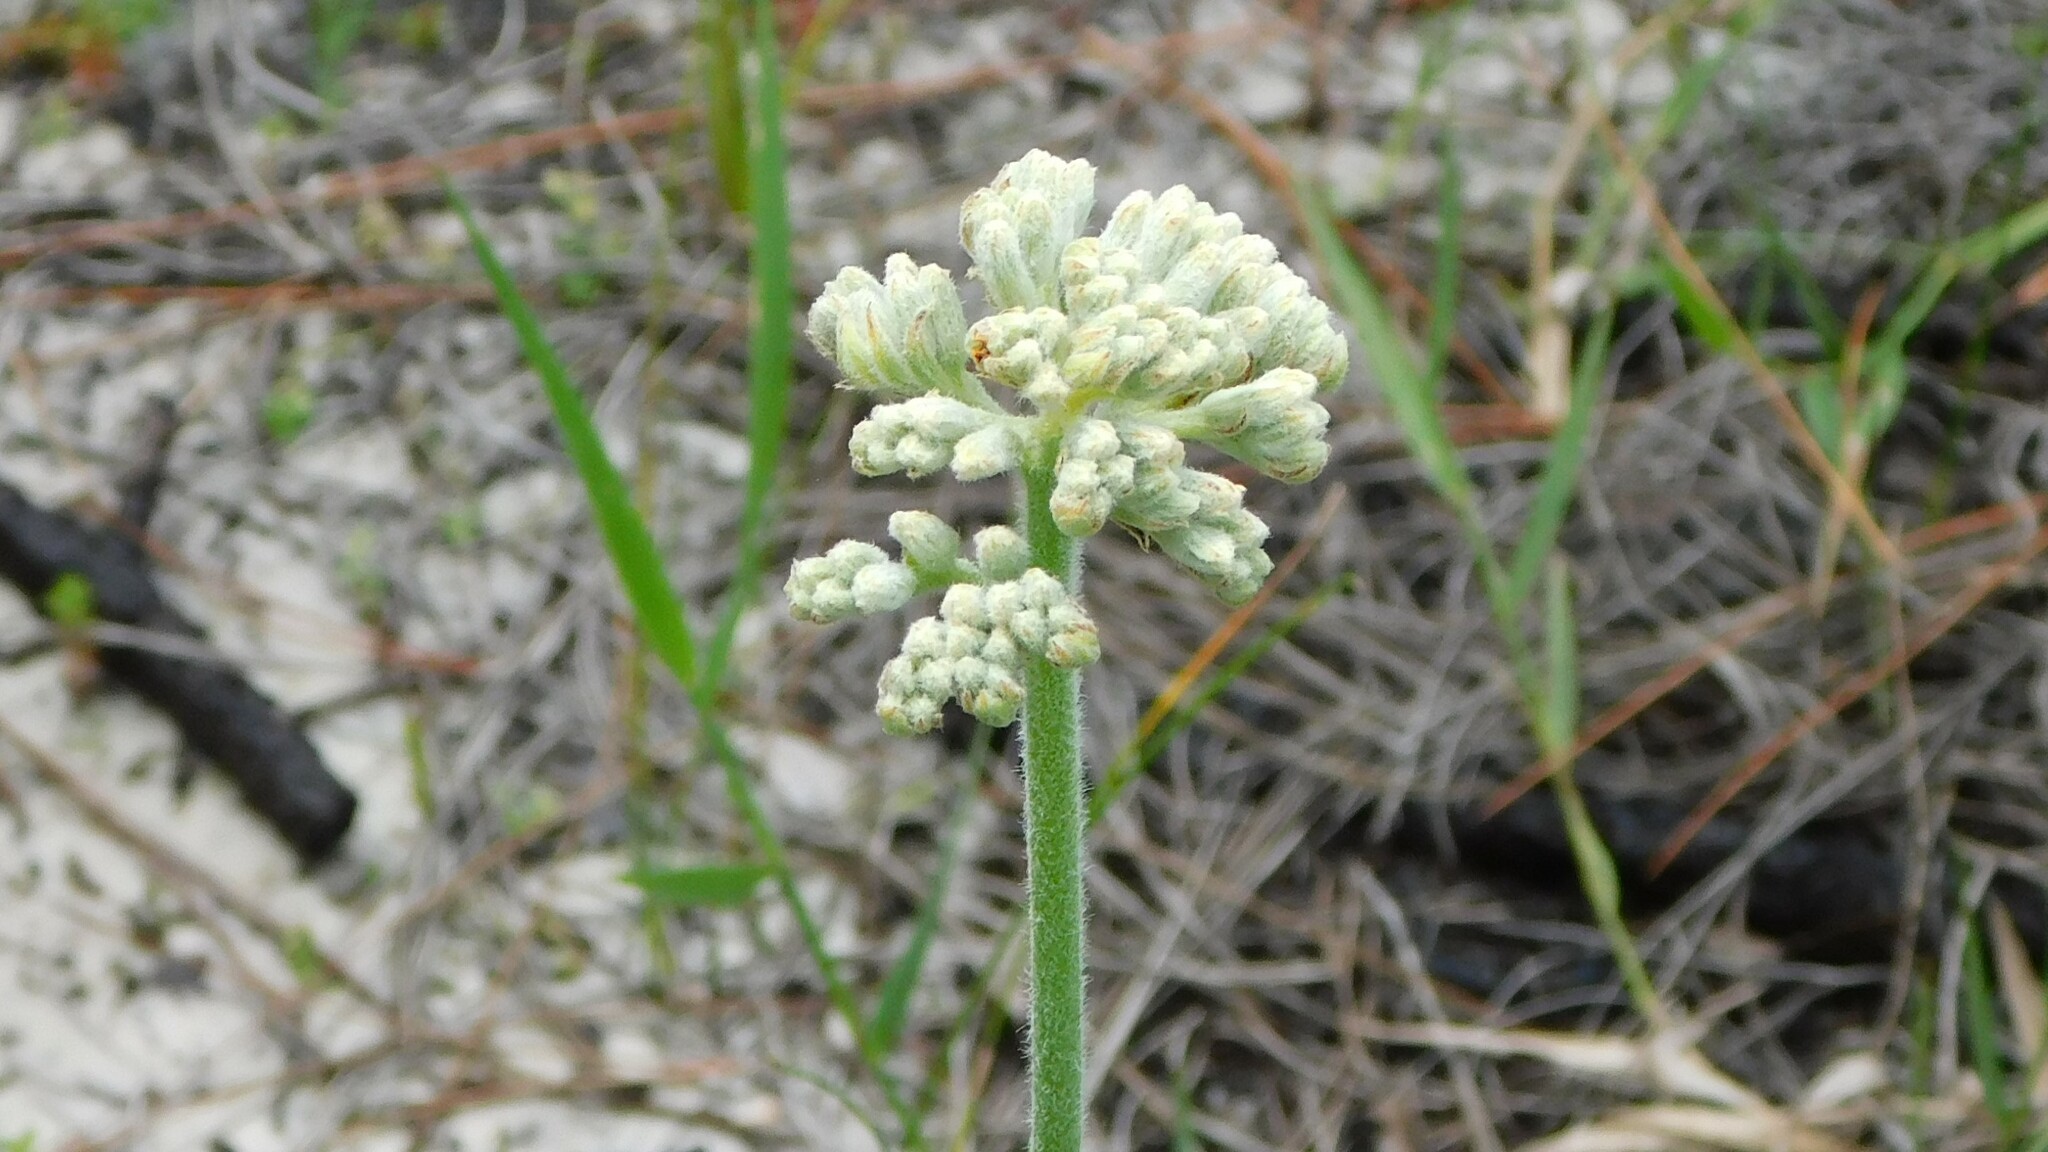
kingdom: Plantae
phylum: Tracheophyta
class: Liliopsida
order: Commelinales
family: Haemodoraceae
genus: Lachnanthes
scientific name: Lachnanthes caroliana
